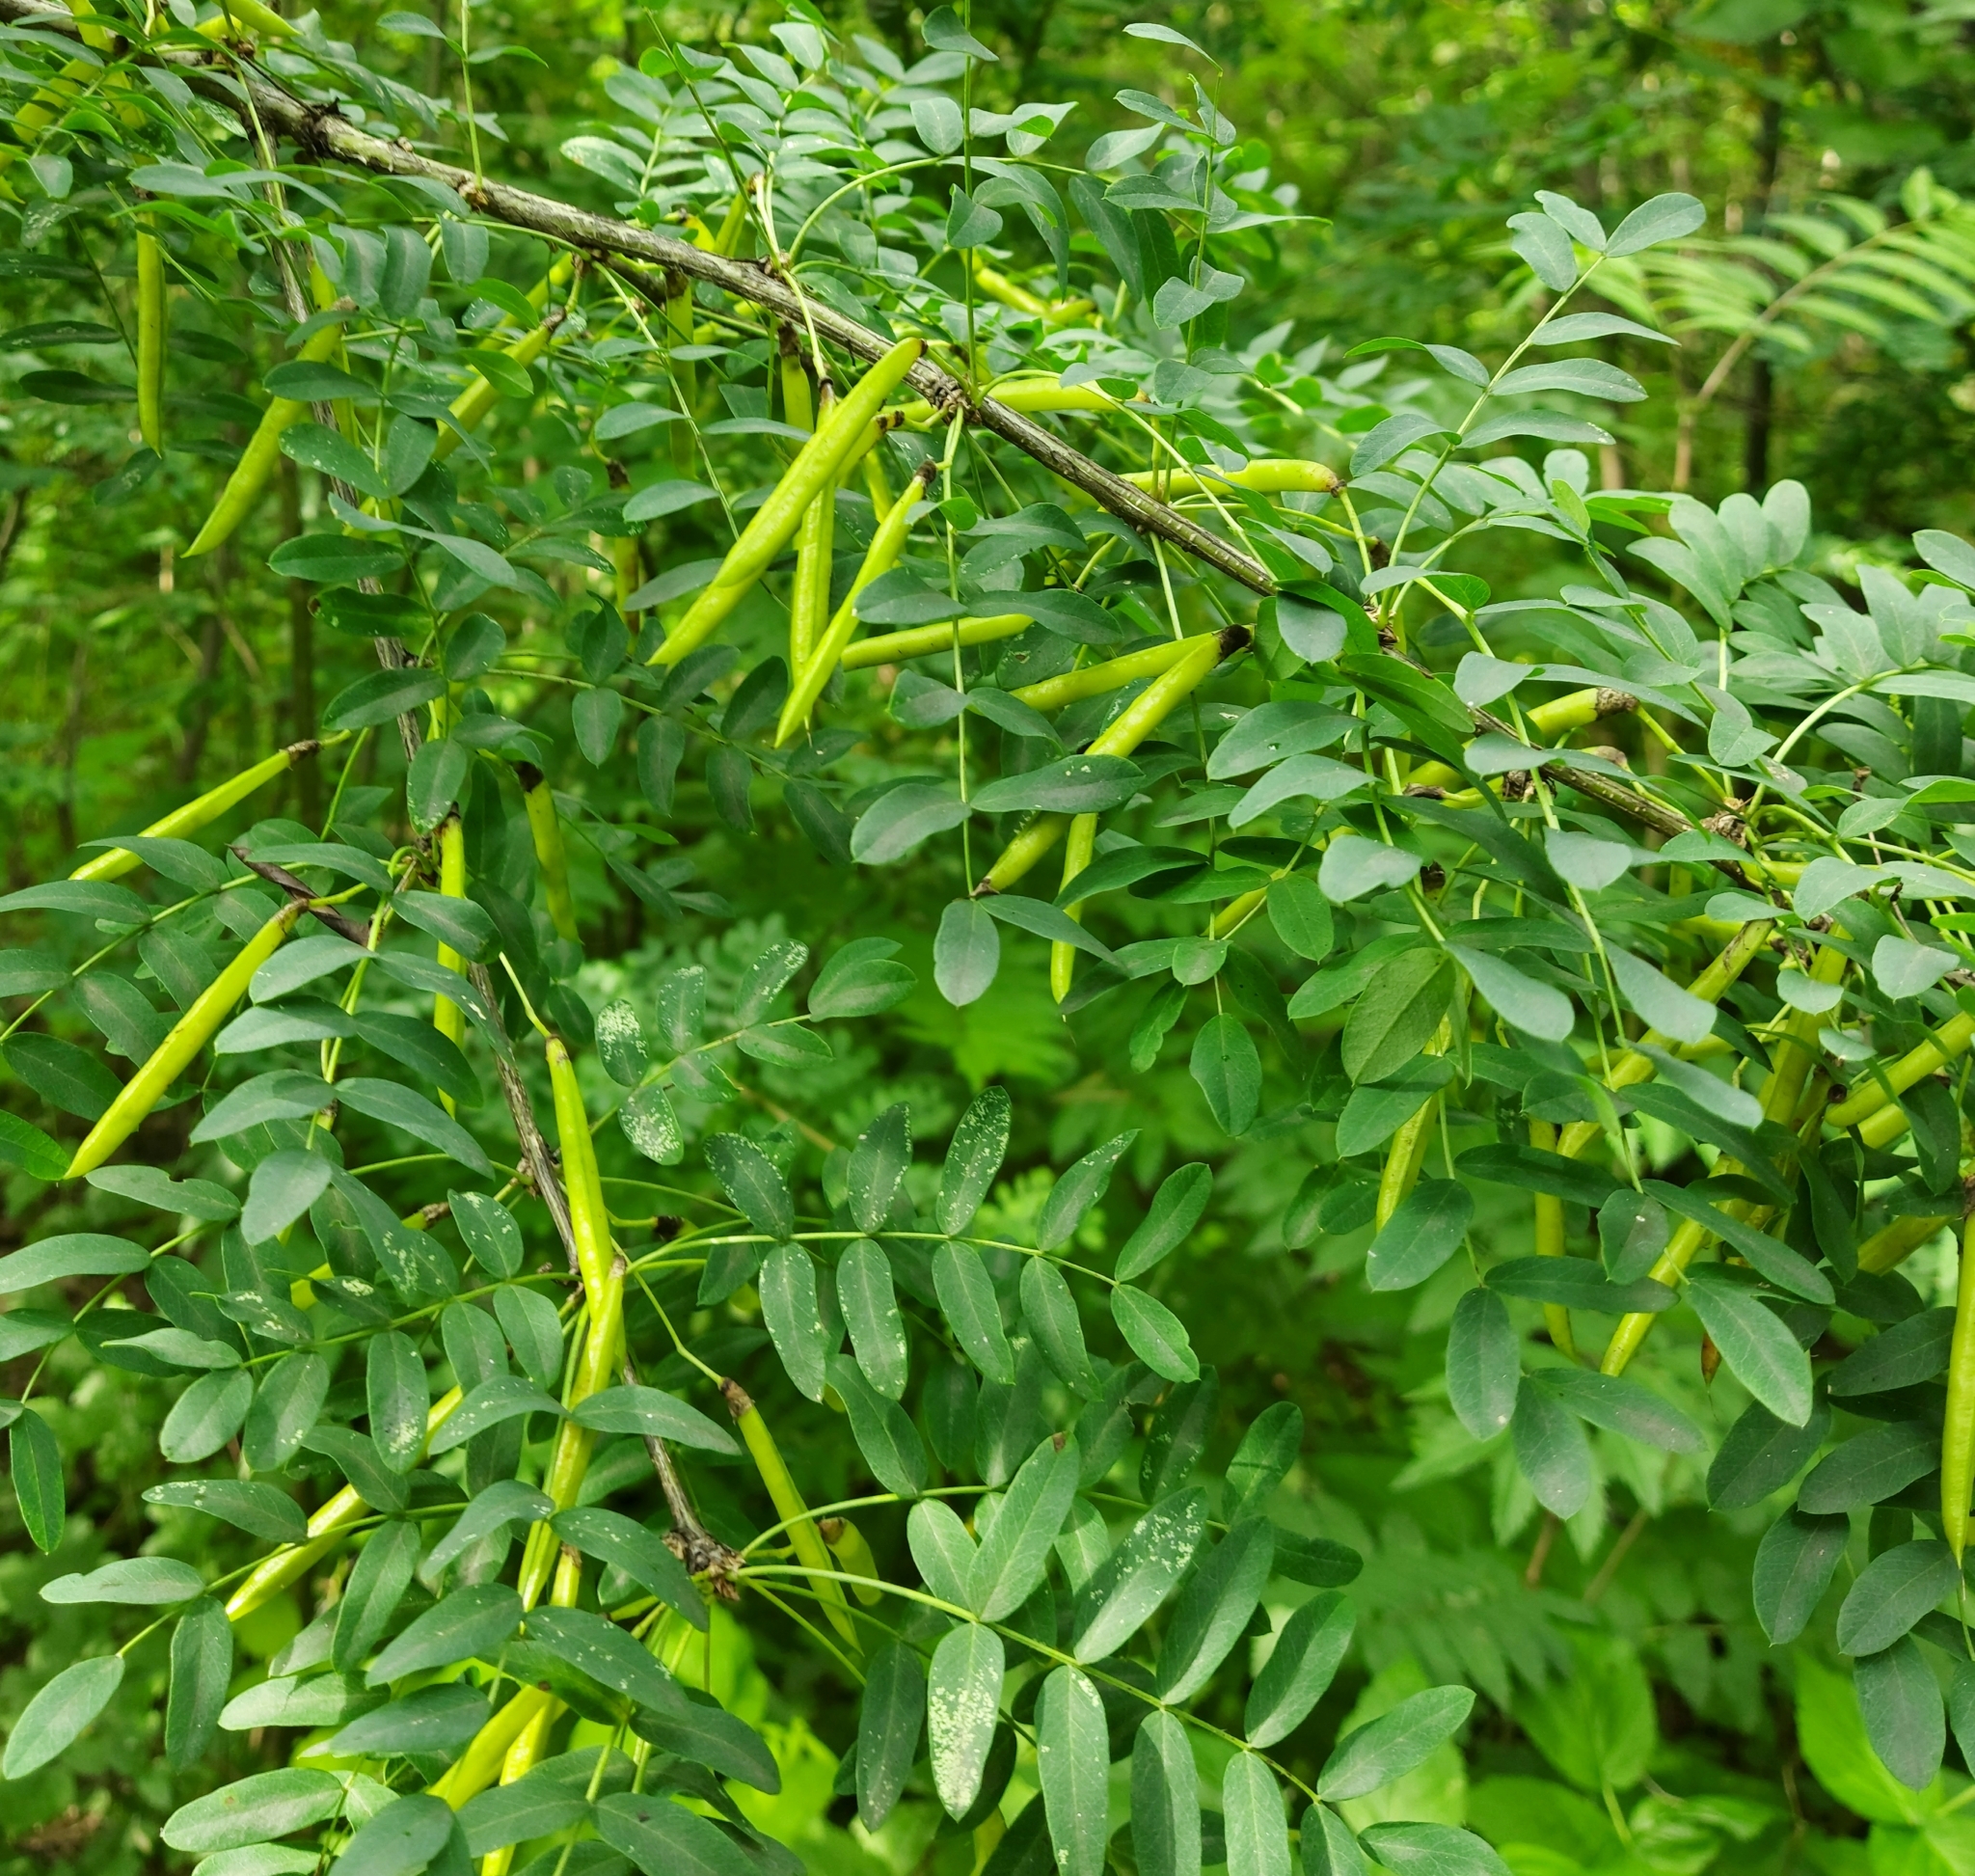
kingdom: Plantae
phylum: Tracheophyta
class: Magnoliopsida
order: Fabales
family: Fabaceae
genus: Caragana
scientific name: Caragana arborescens
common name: Siberian peashrub
